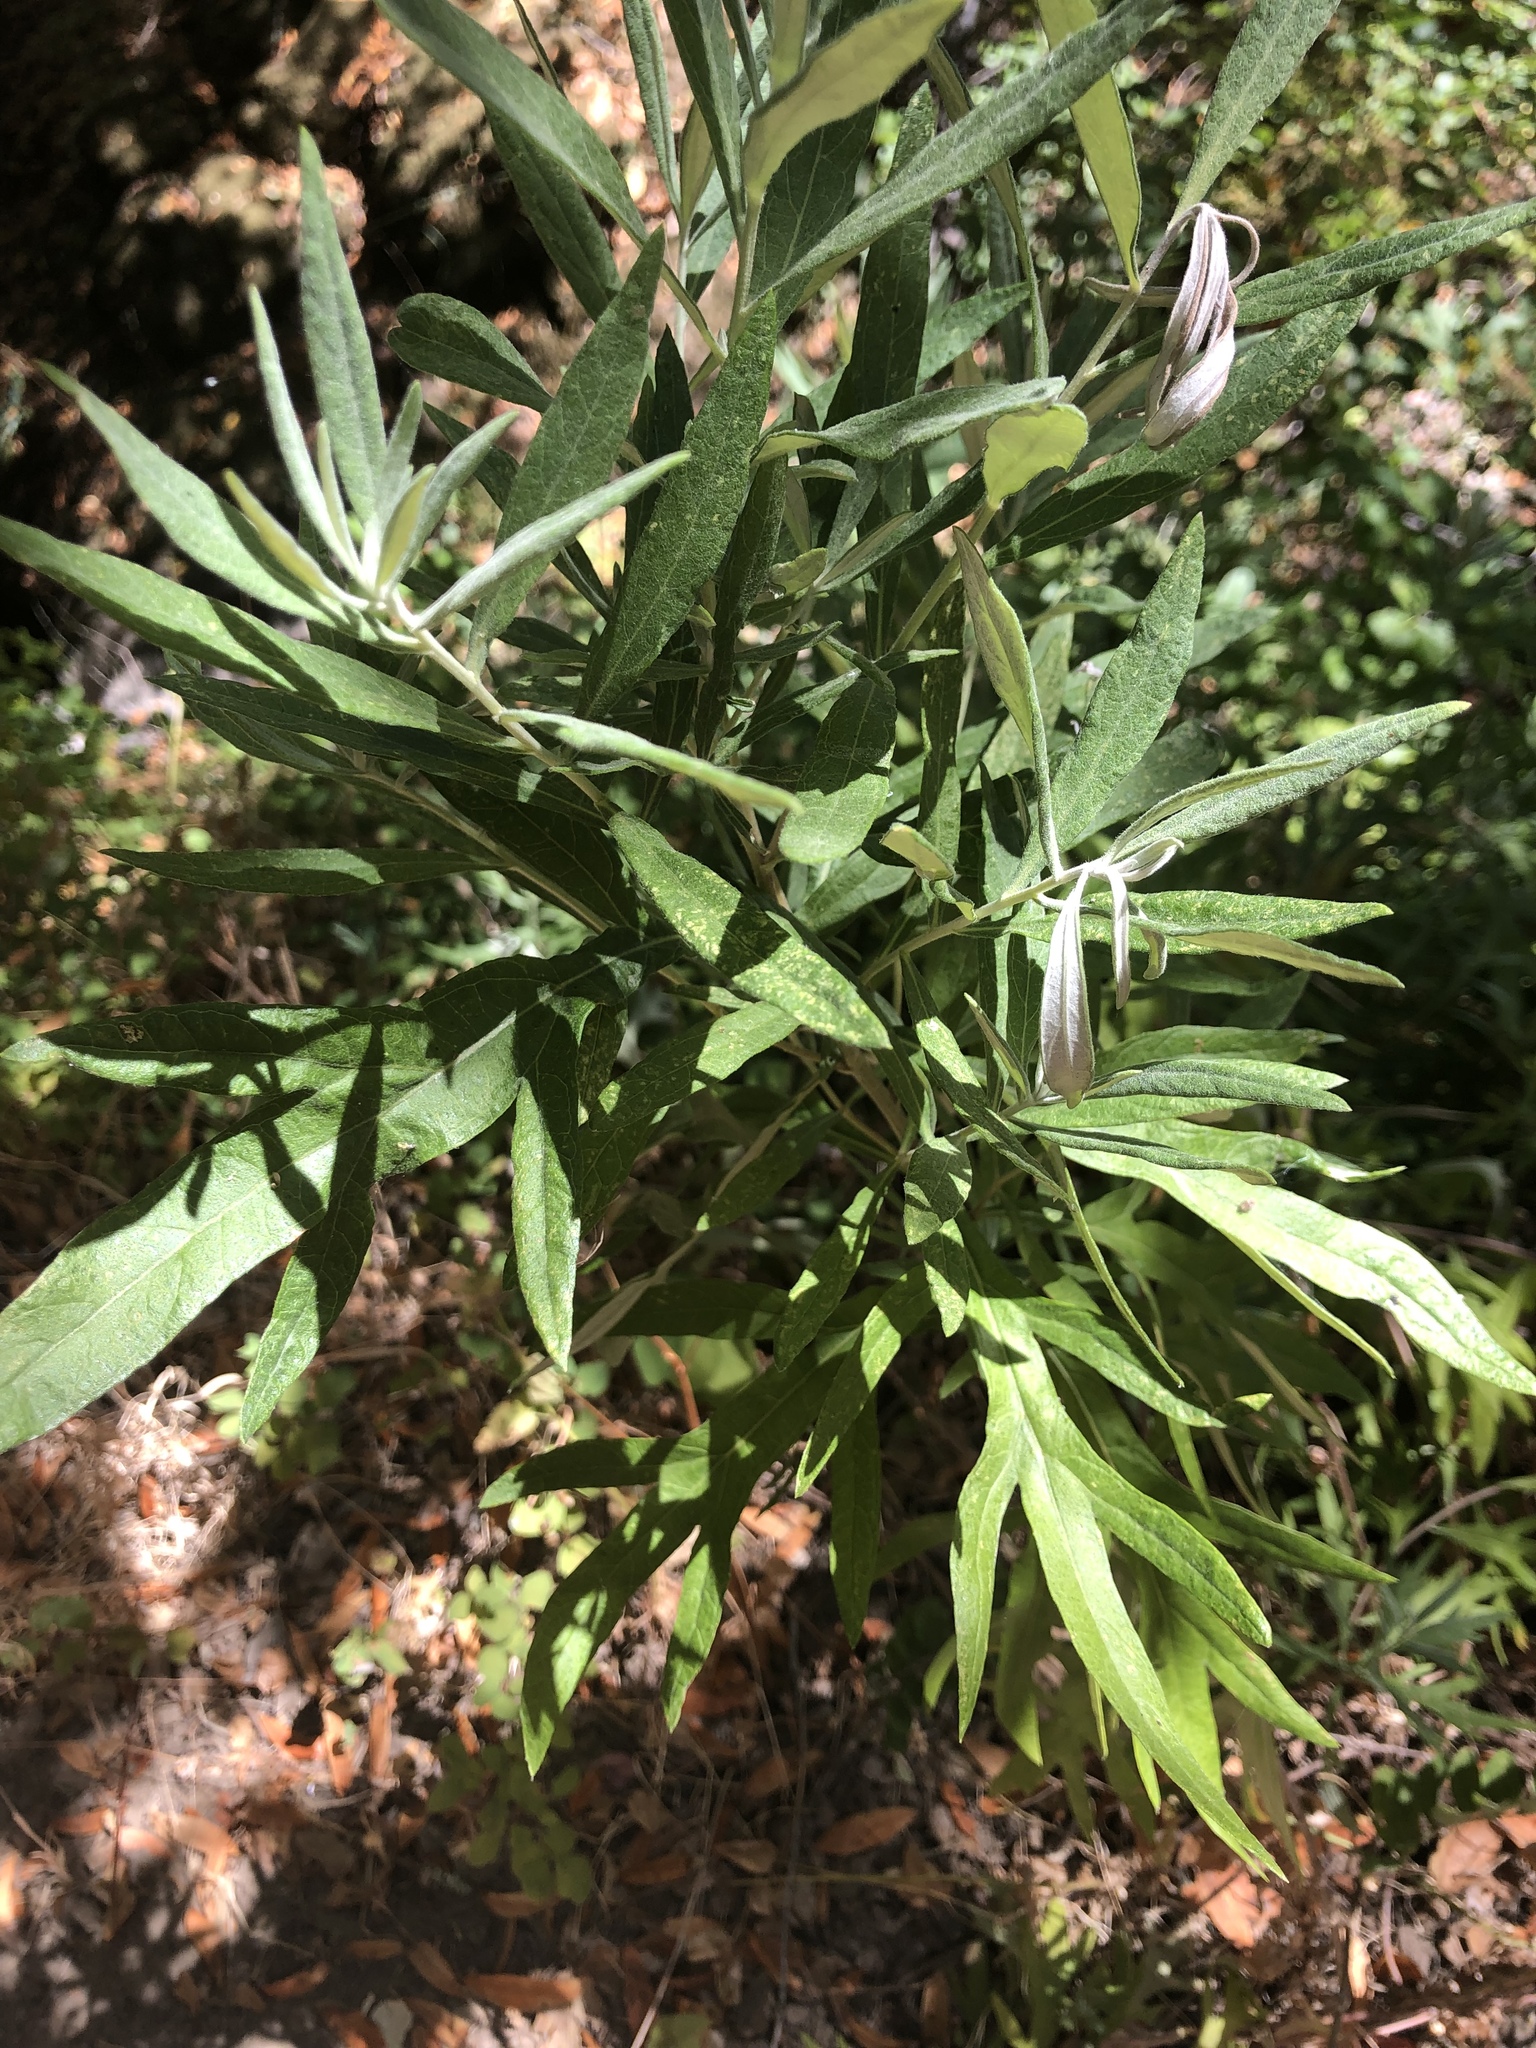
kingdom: Plantae
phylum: Tracheophyta
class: Magnoliopsida
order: Asterales
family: Asteraceae
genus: Artemisia
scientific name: Artemisia douglasiana
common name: Northwest mugwort
